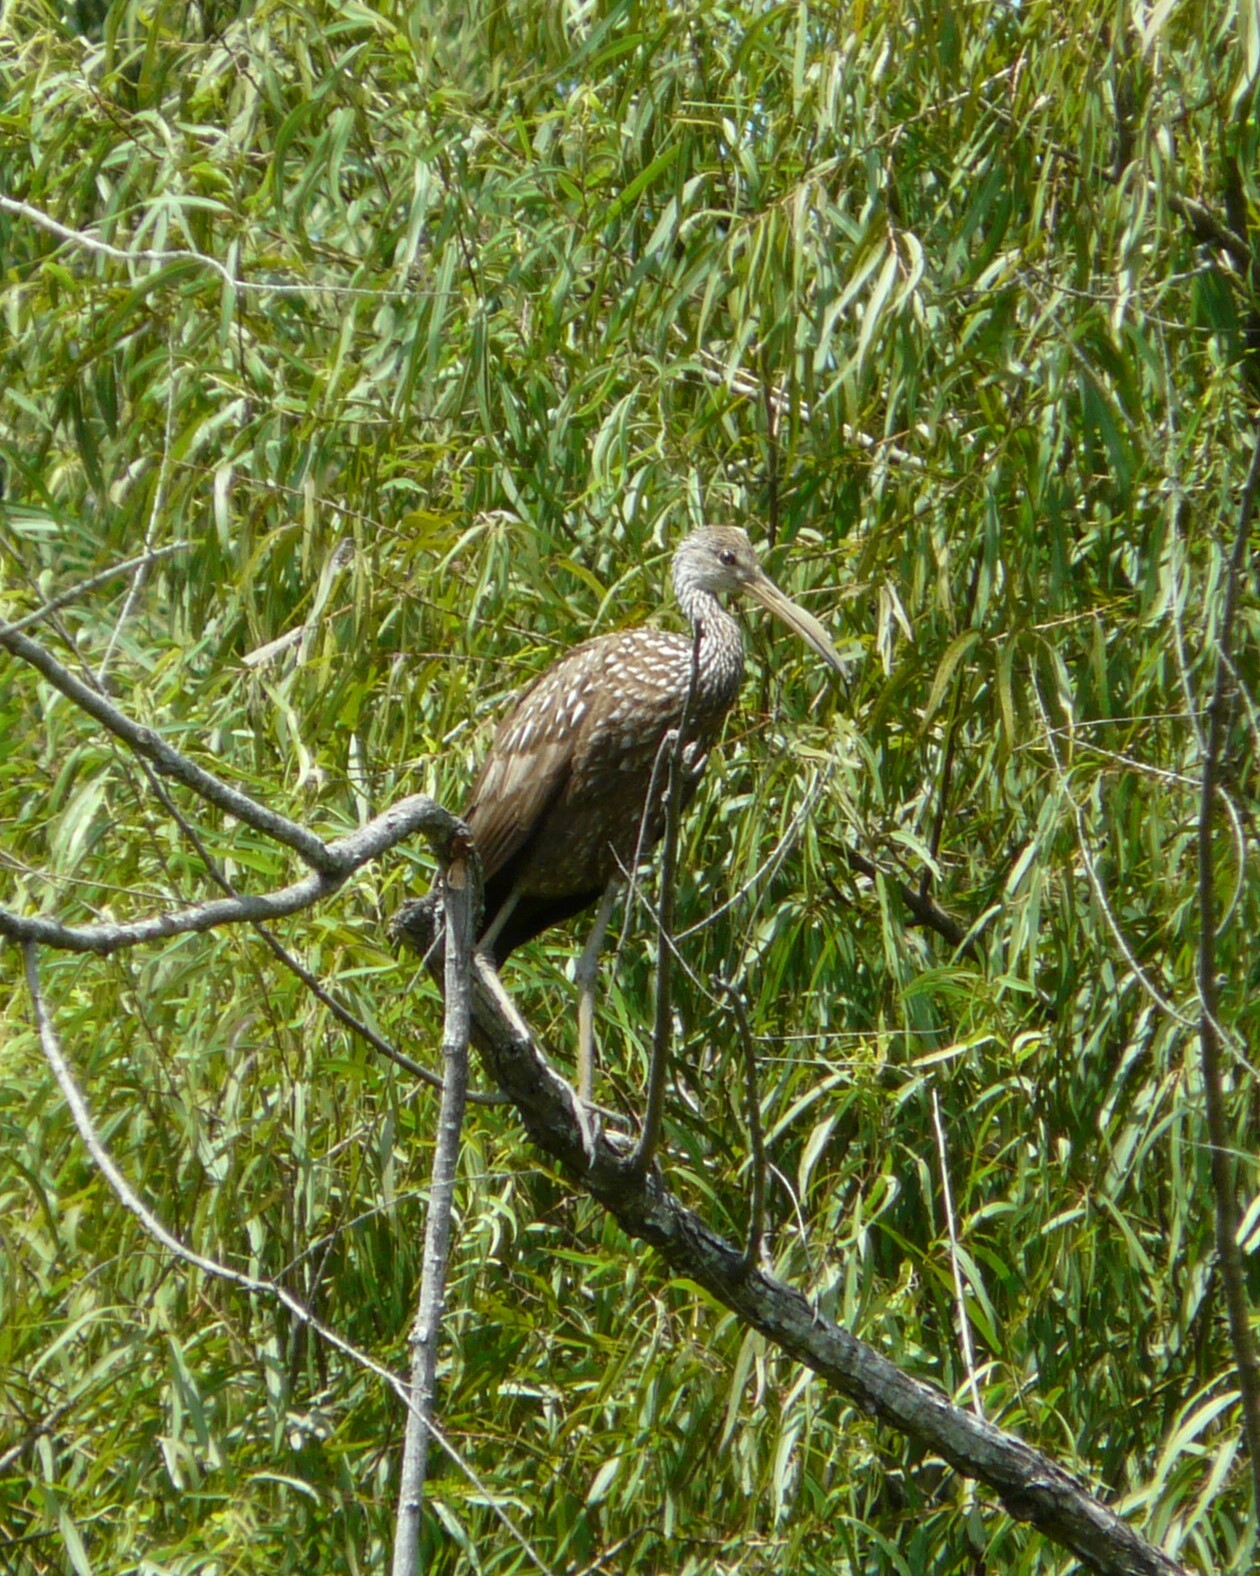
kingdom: Animalia
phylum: Chordata
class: Aves
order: Gruiformes
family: Aramidae
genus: Aramus
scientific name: Aramus guarauna
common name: Limpkin
